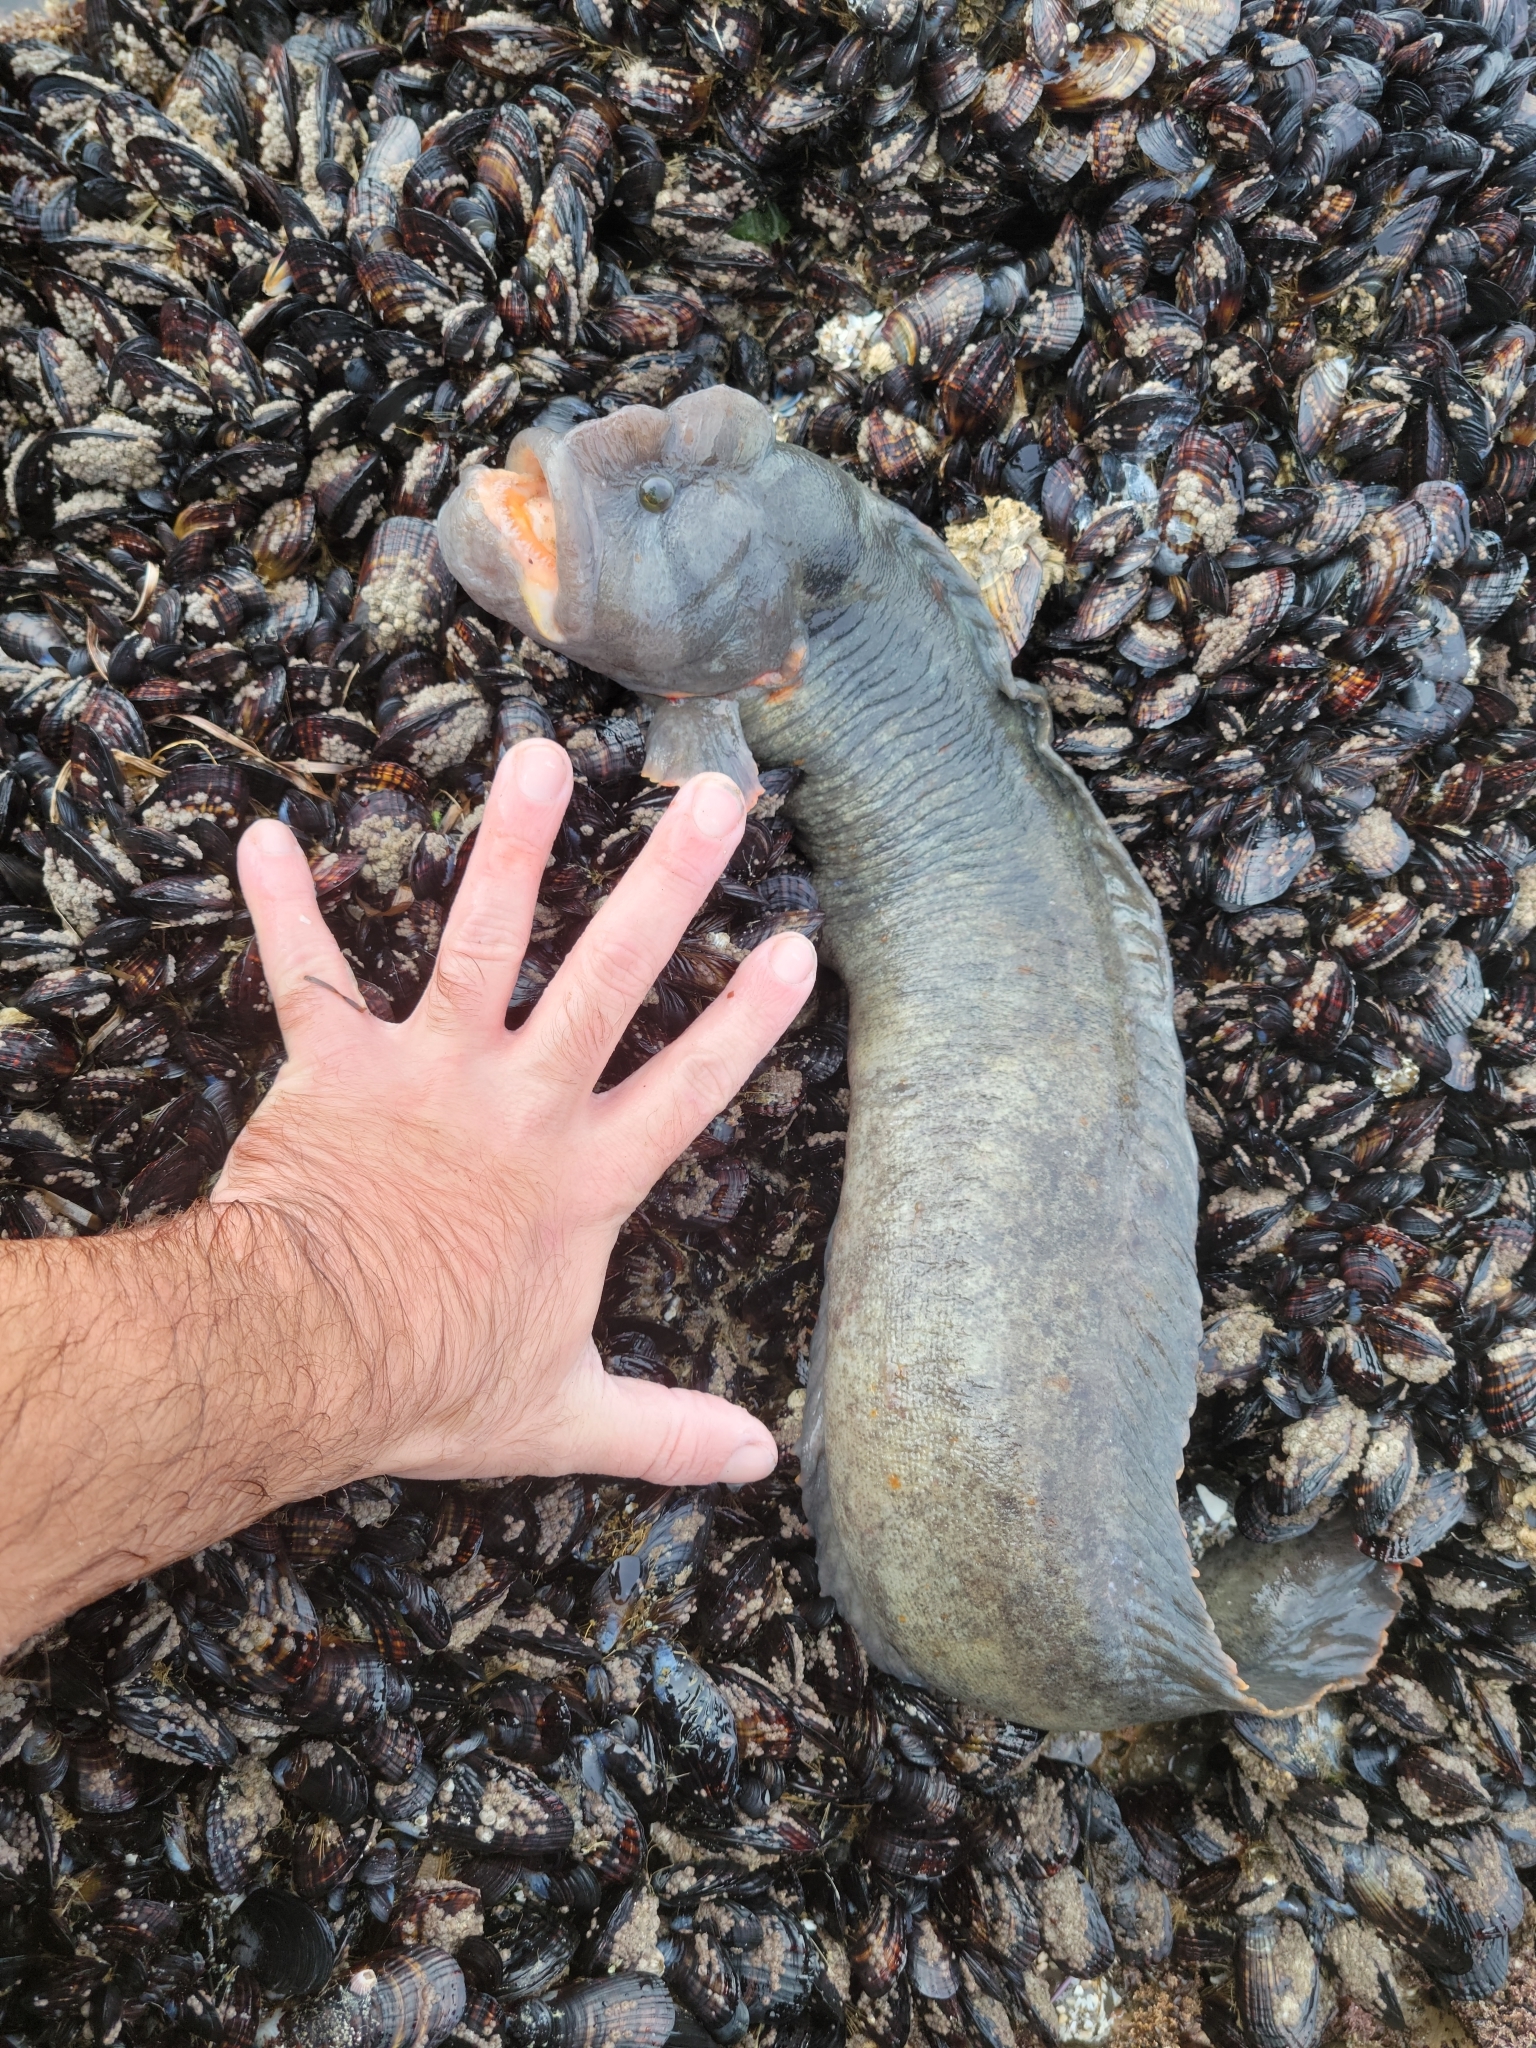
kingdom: Animalia
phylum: Chordata
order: Perciformes
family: Stichaeidae
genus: Cebidichthys
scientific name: Cebidichthys violaceus
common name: Monkeyface prickleback
